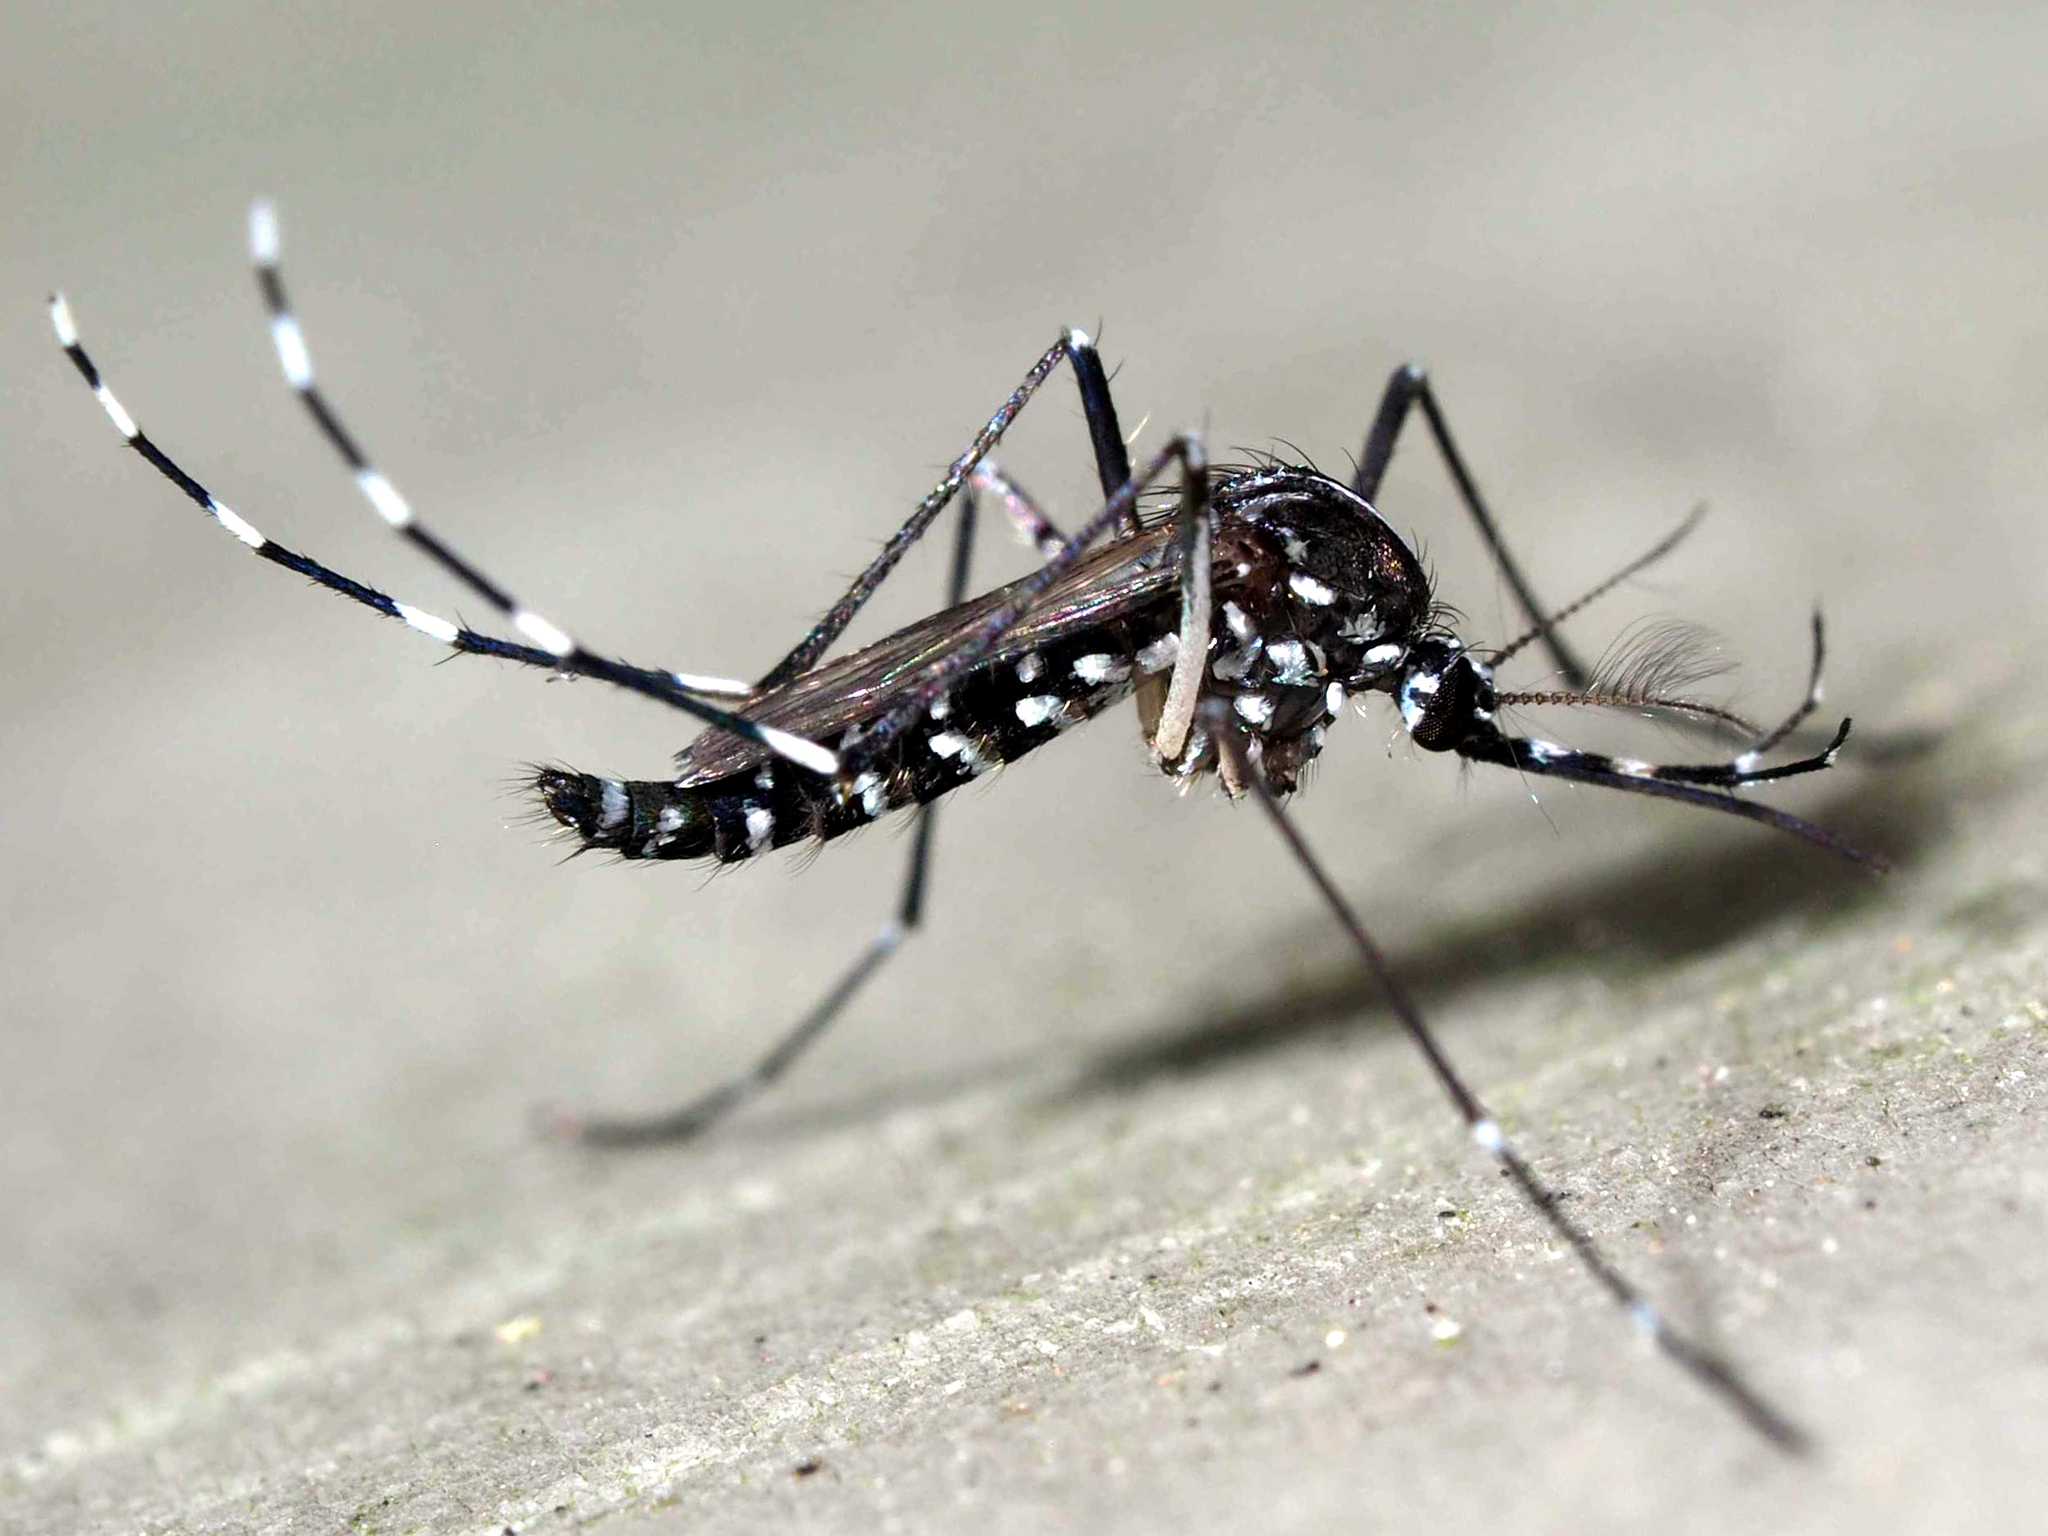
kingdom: Animalia
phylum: Arthropoda
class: Insecta
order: Diptera
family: Culicidae
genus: Aedes
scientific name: Aedes albopictus
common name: Tiger mosquito
